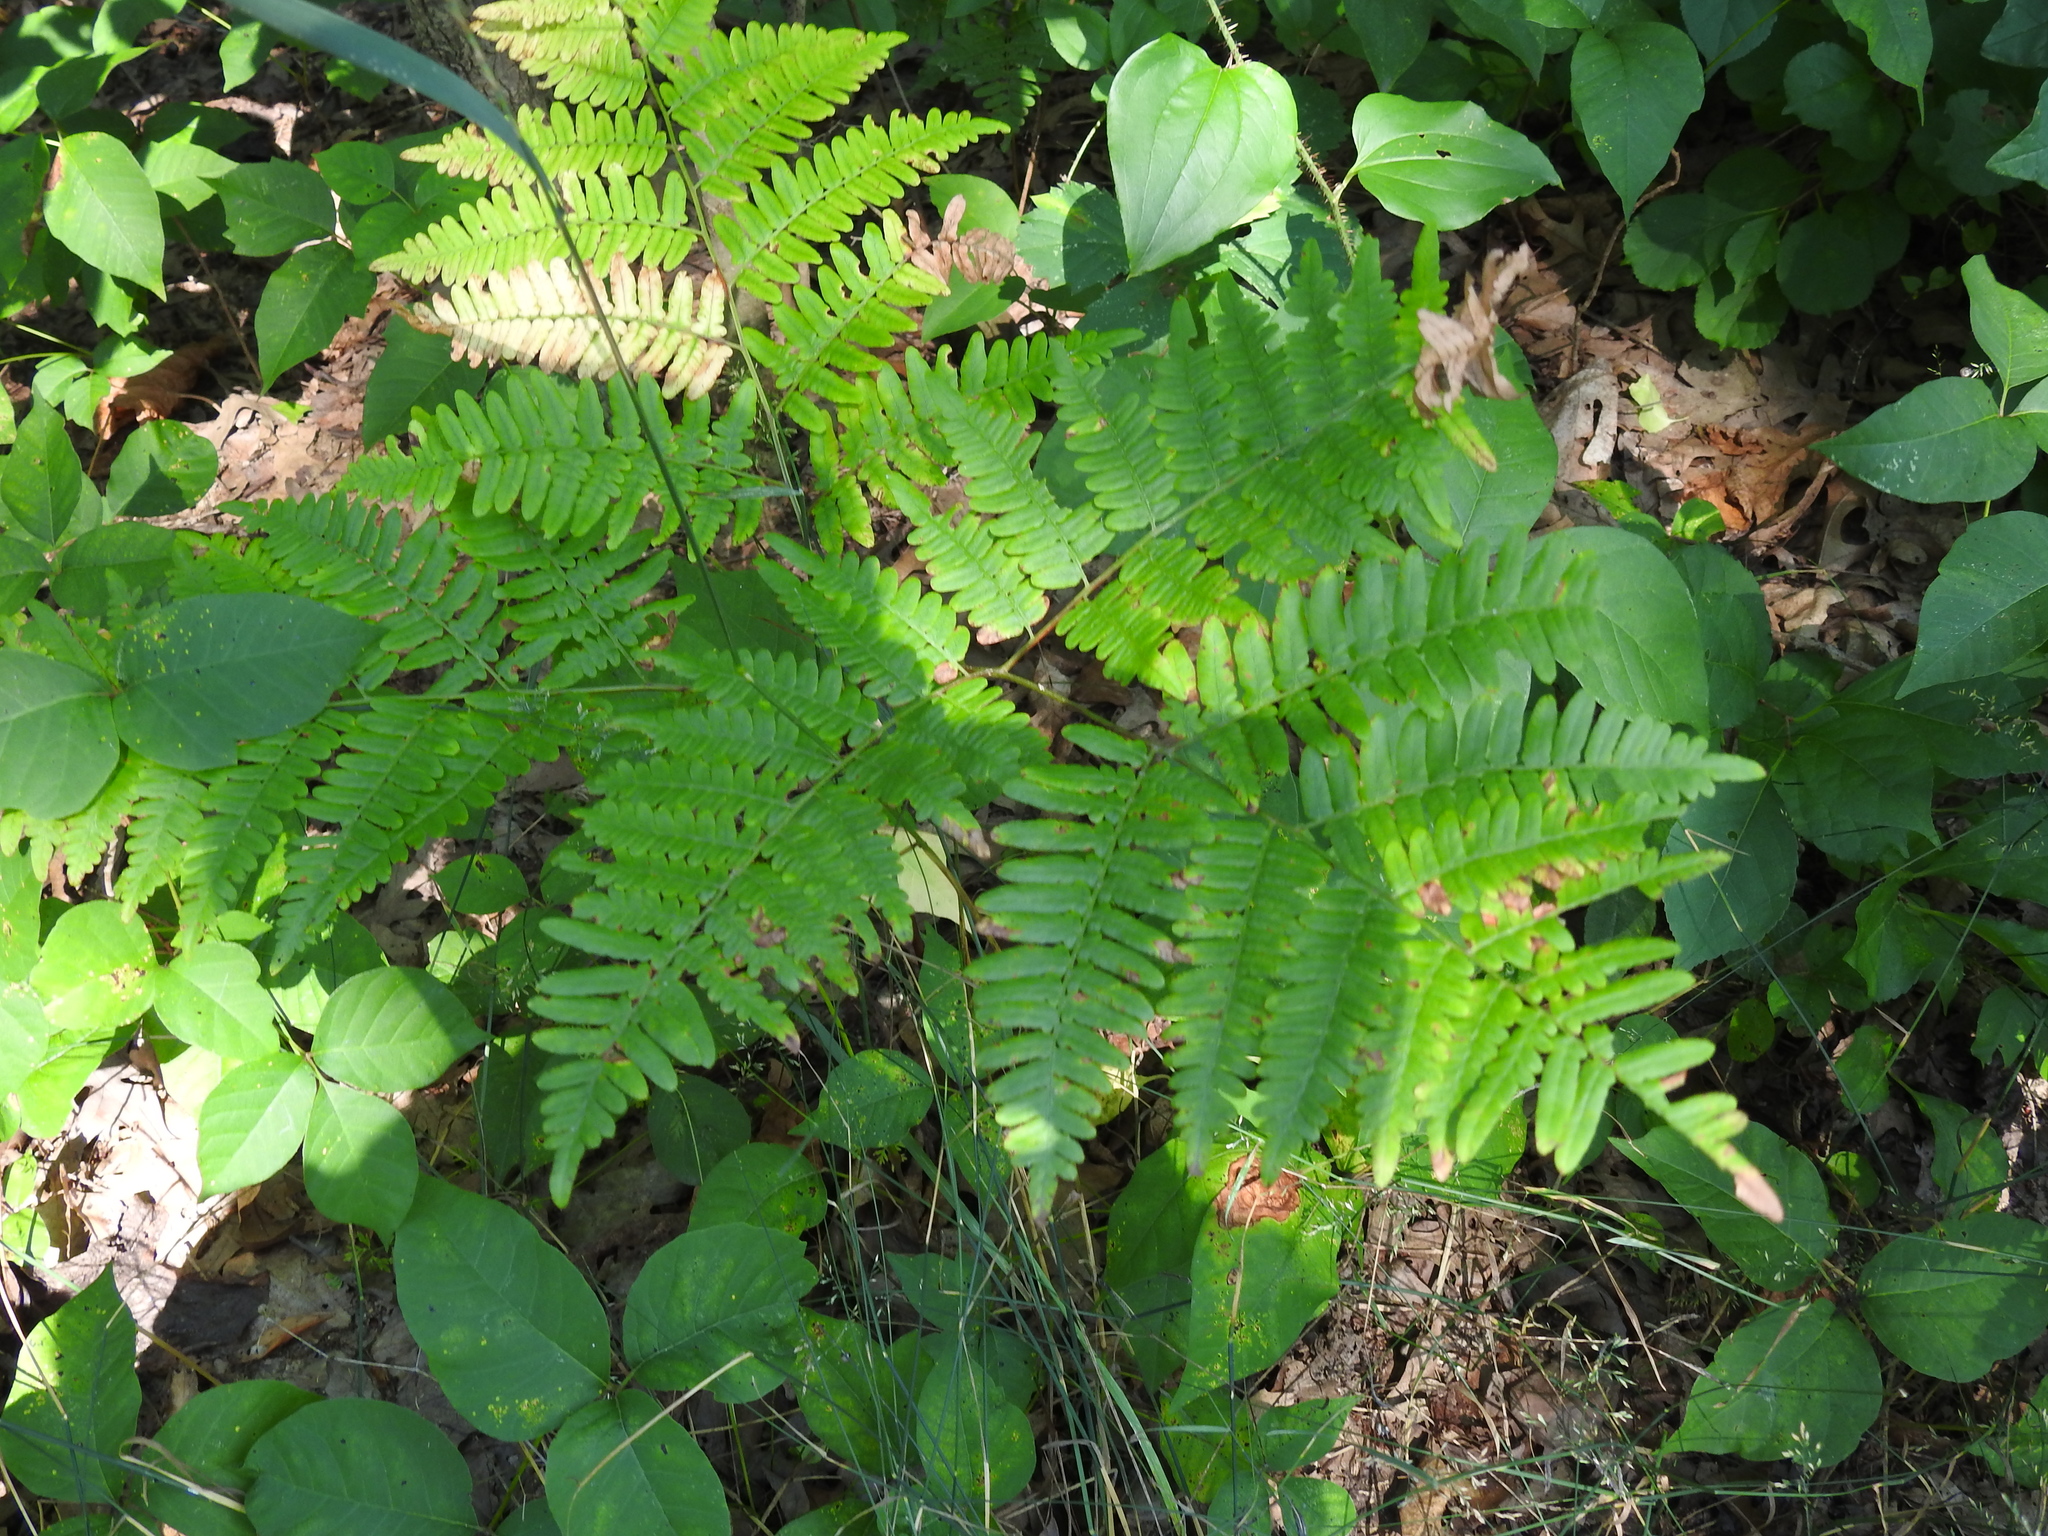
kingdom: Plantae
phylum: Tracheophyta
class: Polypodiopsida
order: Polypodiales
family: Dennstaedtiaceae
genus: Pteridium
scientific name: Pteridium aquilinum
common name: Bracken
